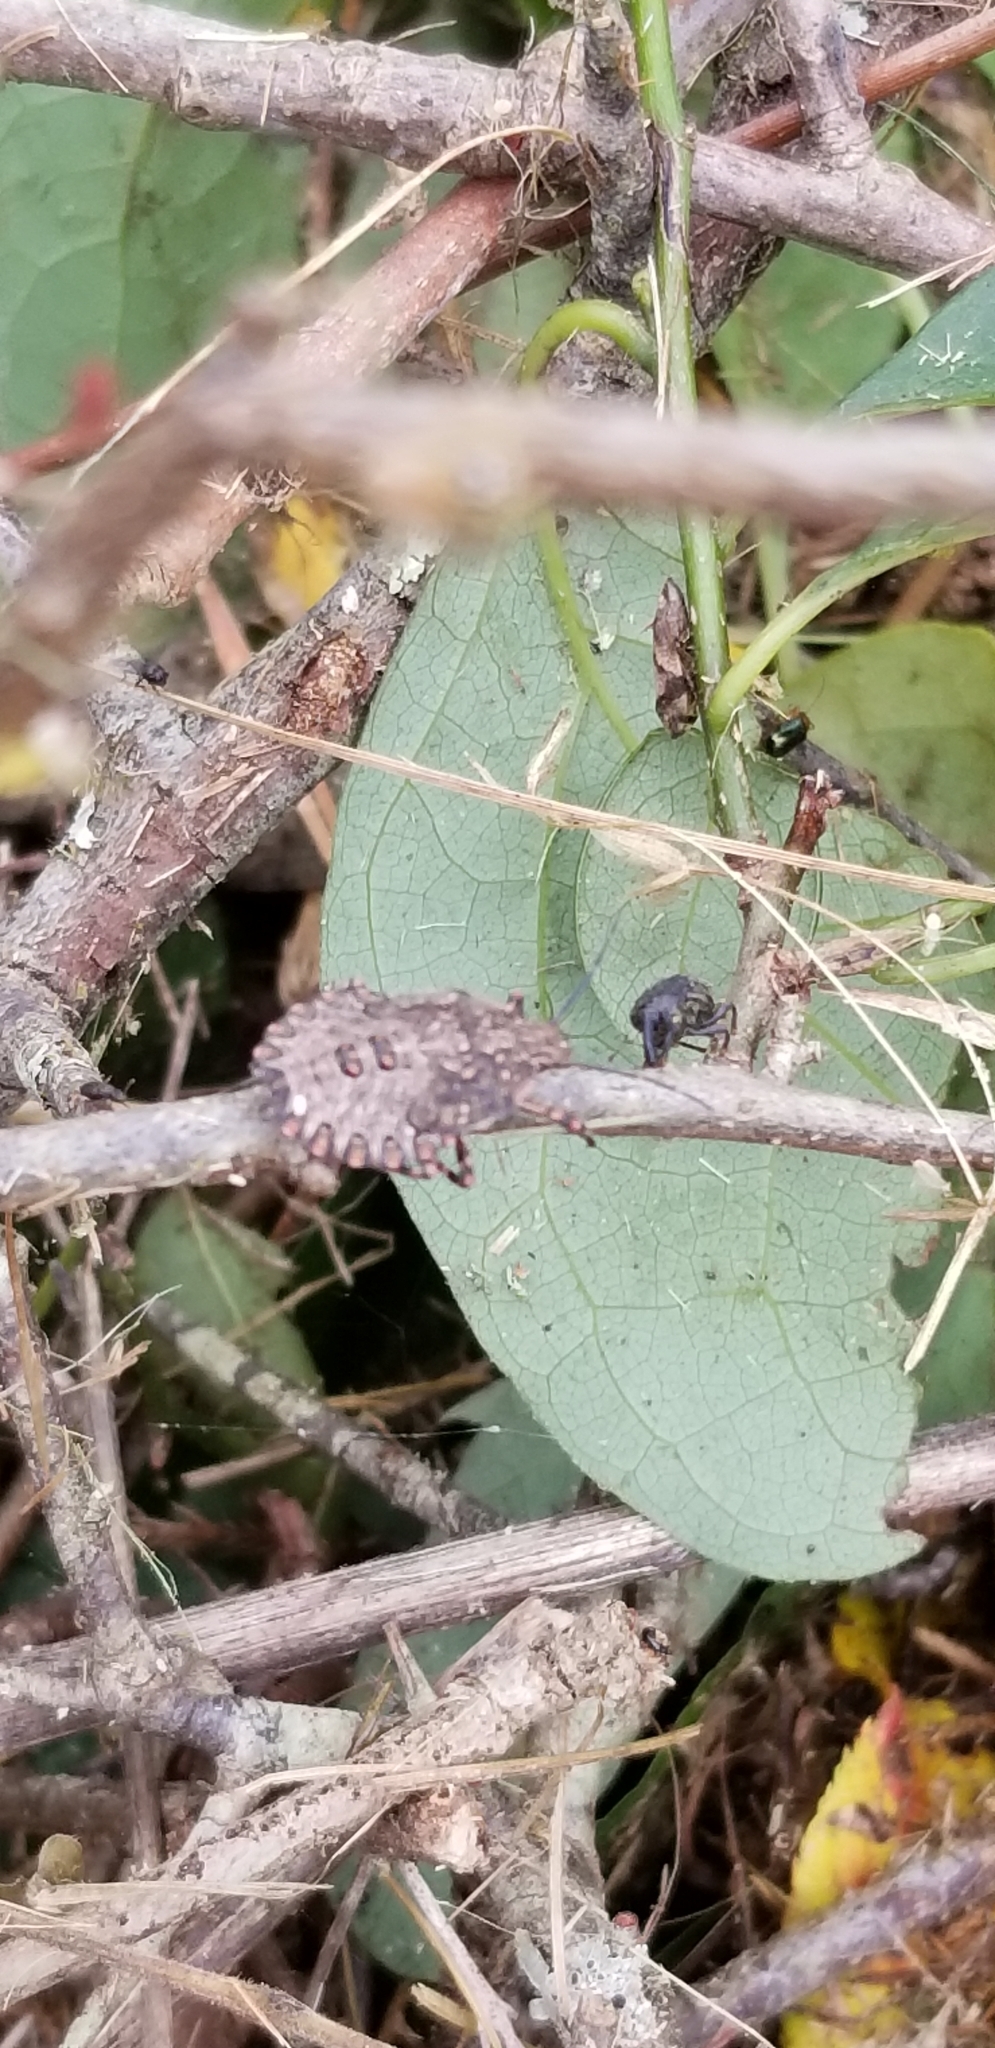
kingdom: Animalia
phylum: Arthropoda
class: Insecta
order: Hemiptera
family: Pentatomidae
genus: Halyomorpha
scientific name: Halyomorpha halys
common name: Brown marmorated stink bug
